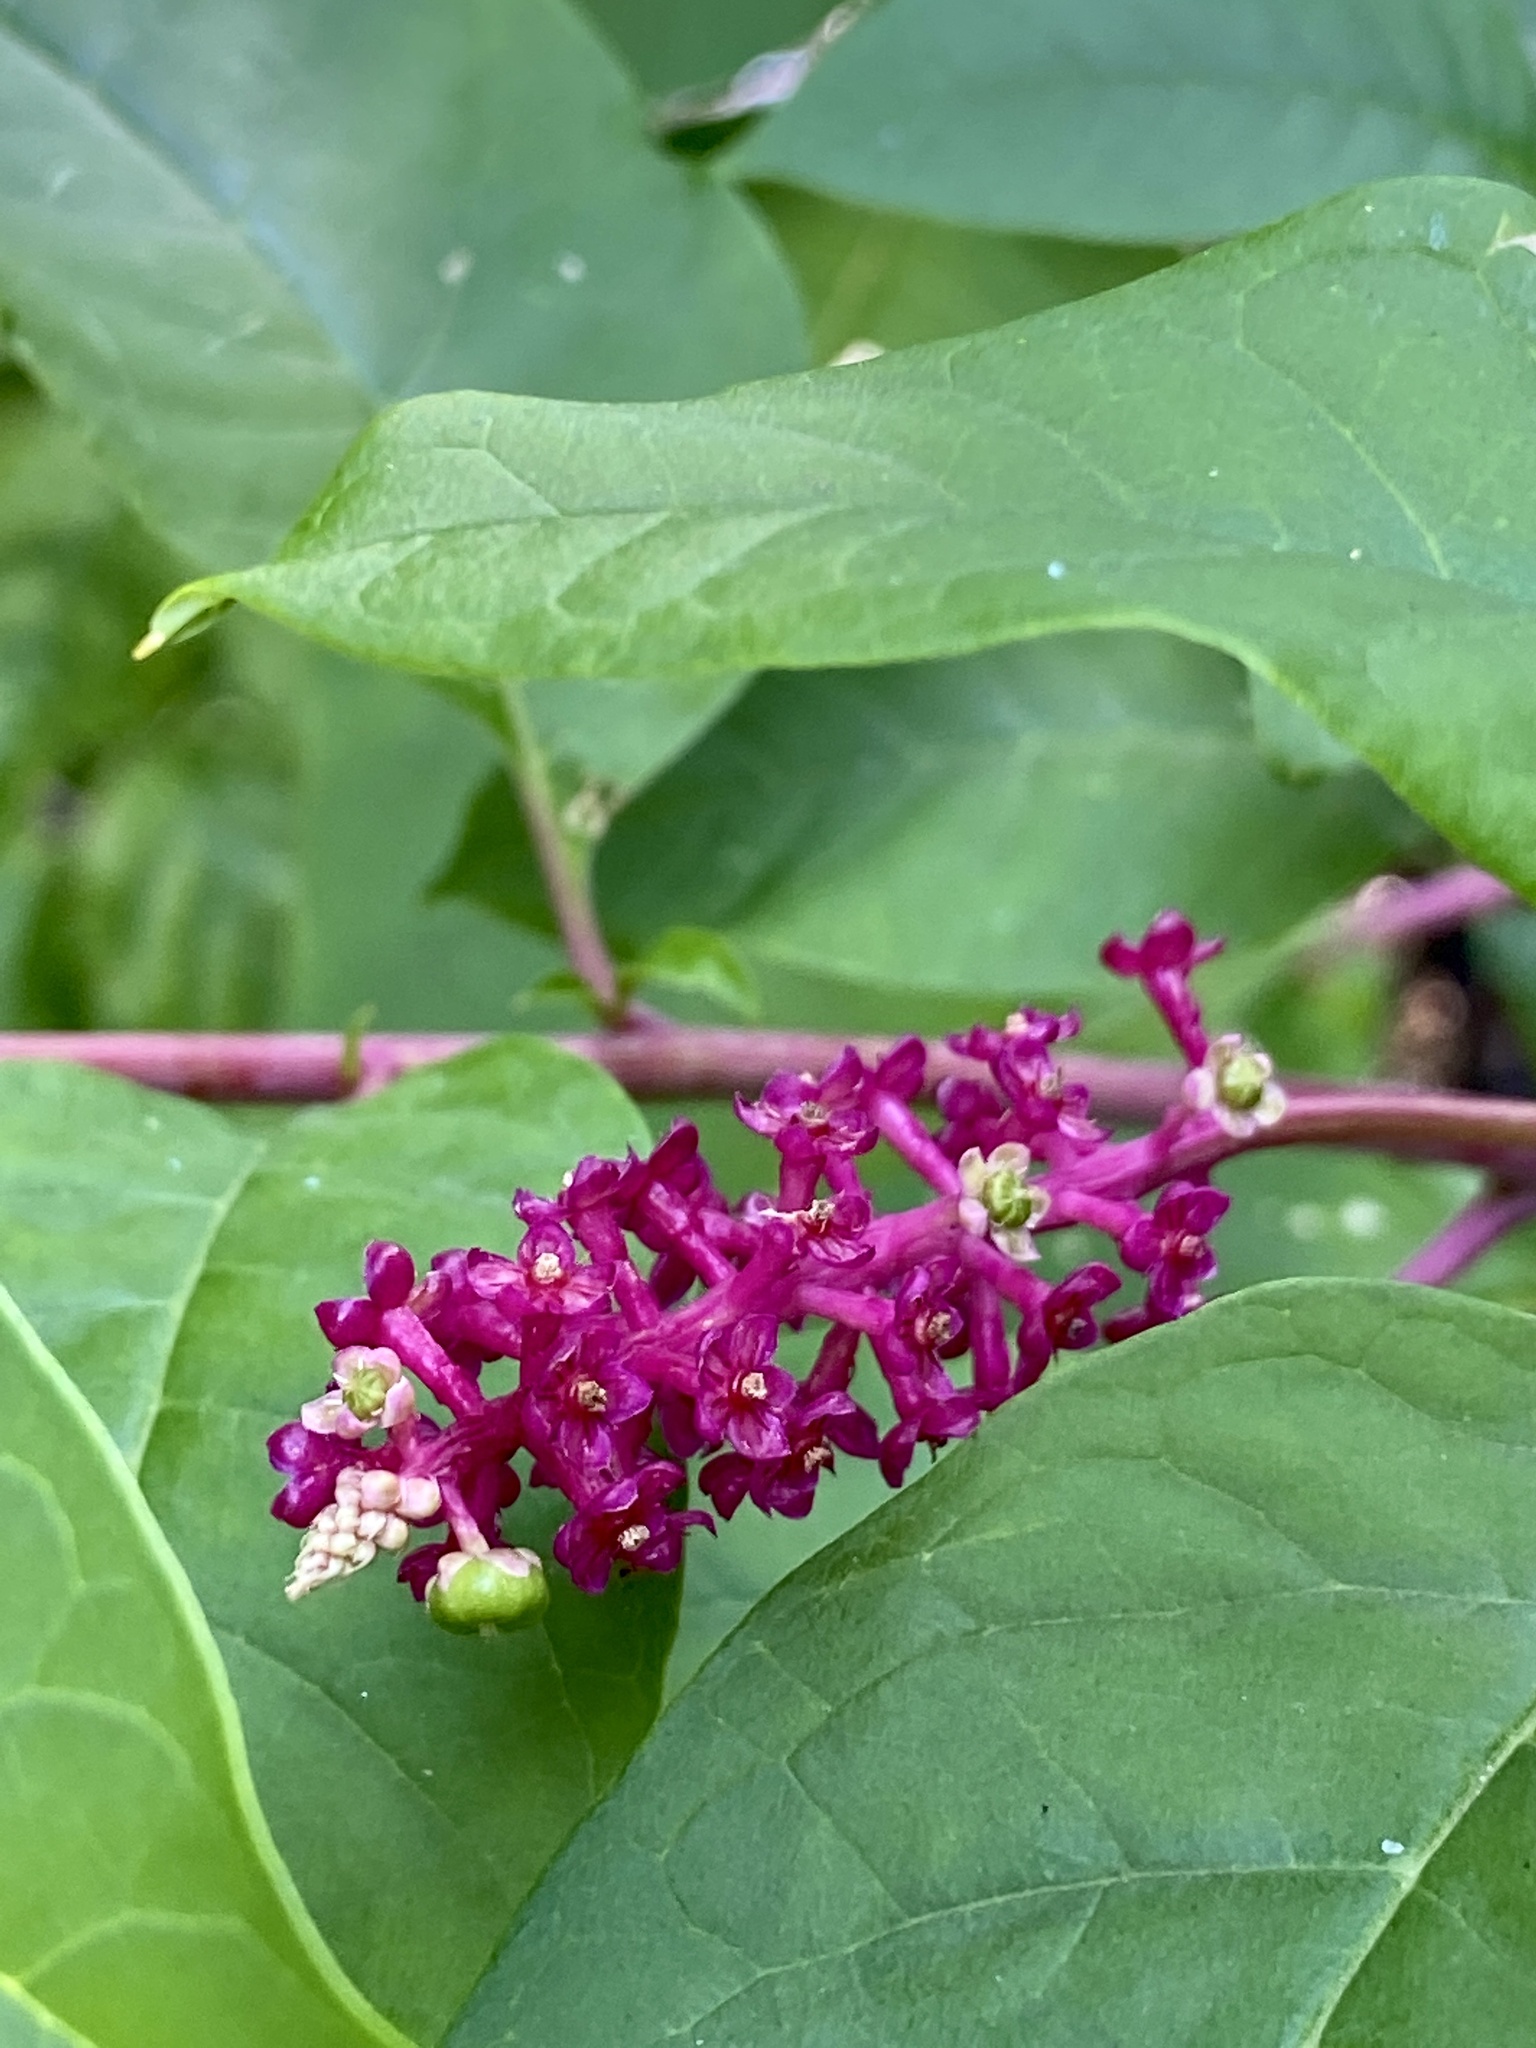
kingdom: Plantae
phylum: Tracheophyta
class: Magnoliopsida
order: Caryophyllales
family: Phytolaccaceae
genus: Phytolacca
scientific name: Phytolacca americana
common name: American pokeweed
